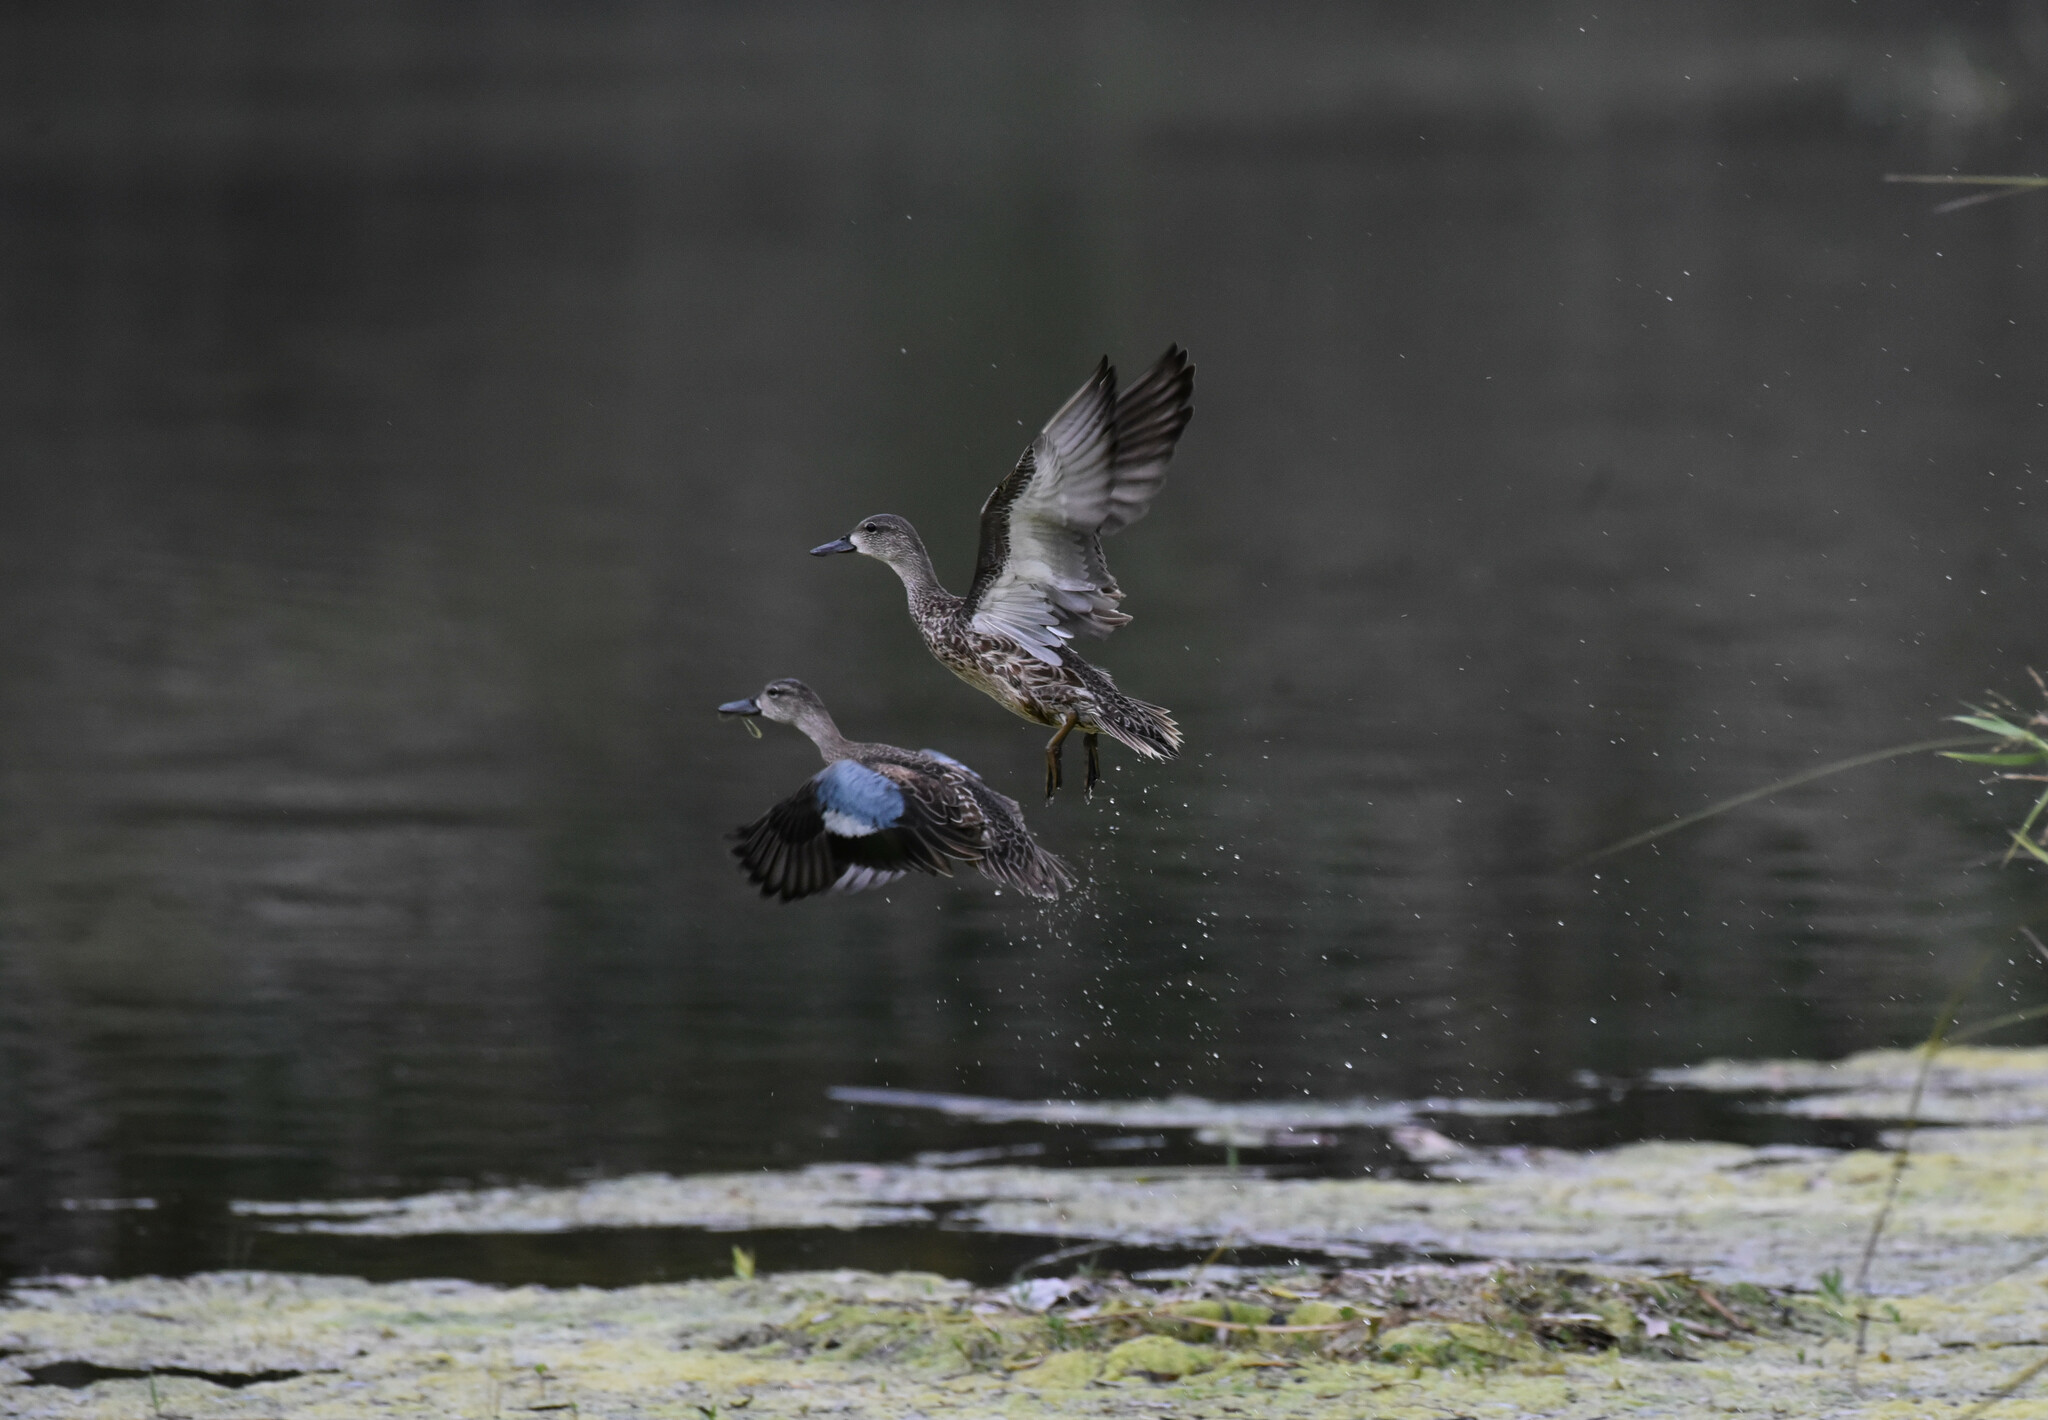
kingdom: Animalia
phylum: Chordata
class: Aves
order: Anseriformes
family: Anatidae
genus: Spatula
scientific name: Spatula discors
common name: Blue-winged teal
